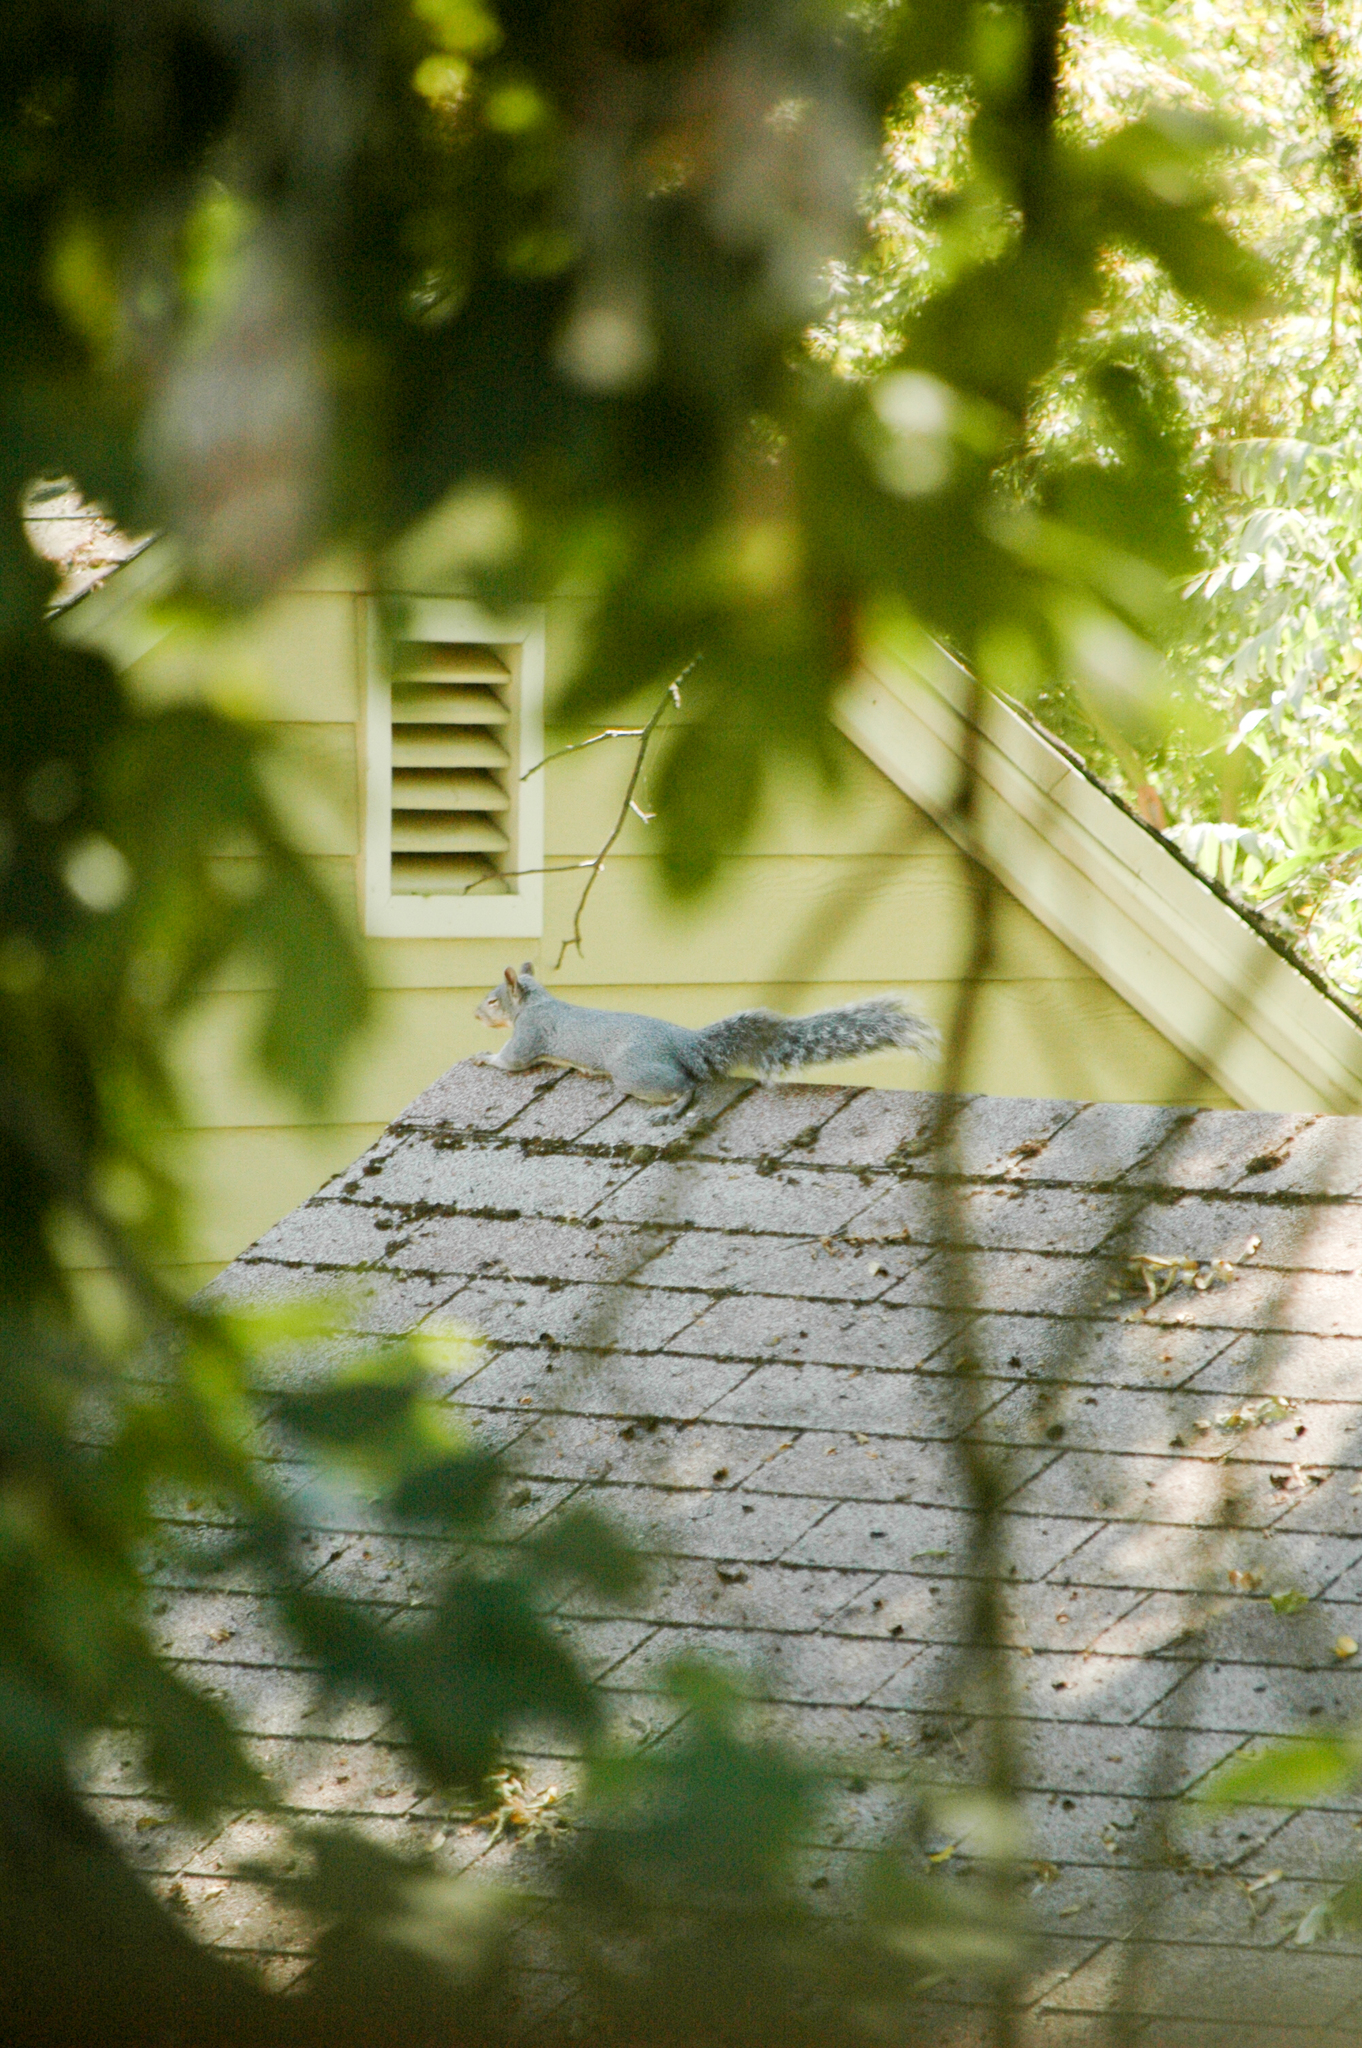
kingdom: Animalia
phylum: Chordata
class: Mammalia
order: Rodentia
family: Sciuridae
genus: Sciurus
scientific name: Sciurus griseus
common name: Western gray squirrel
